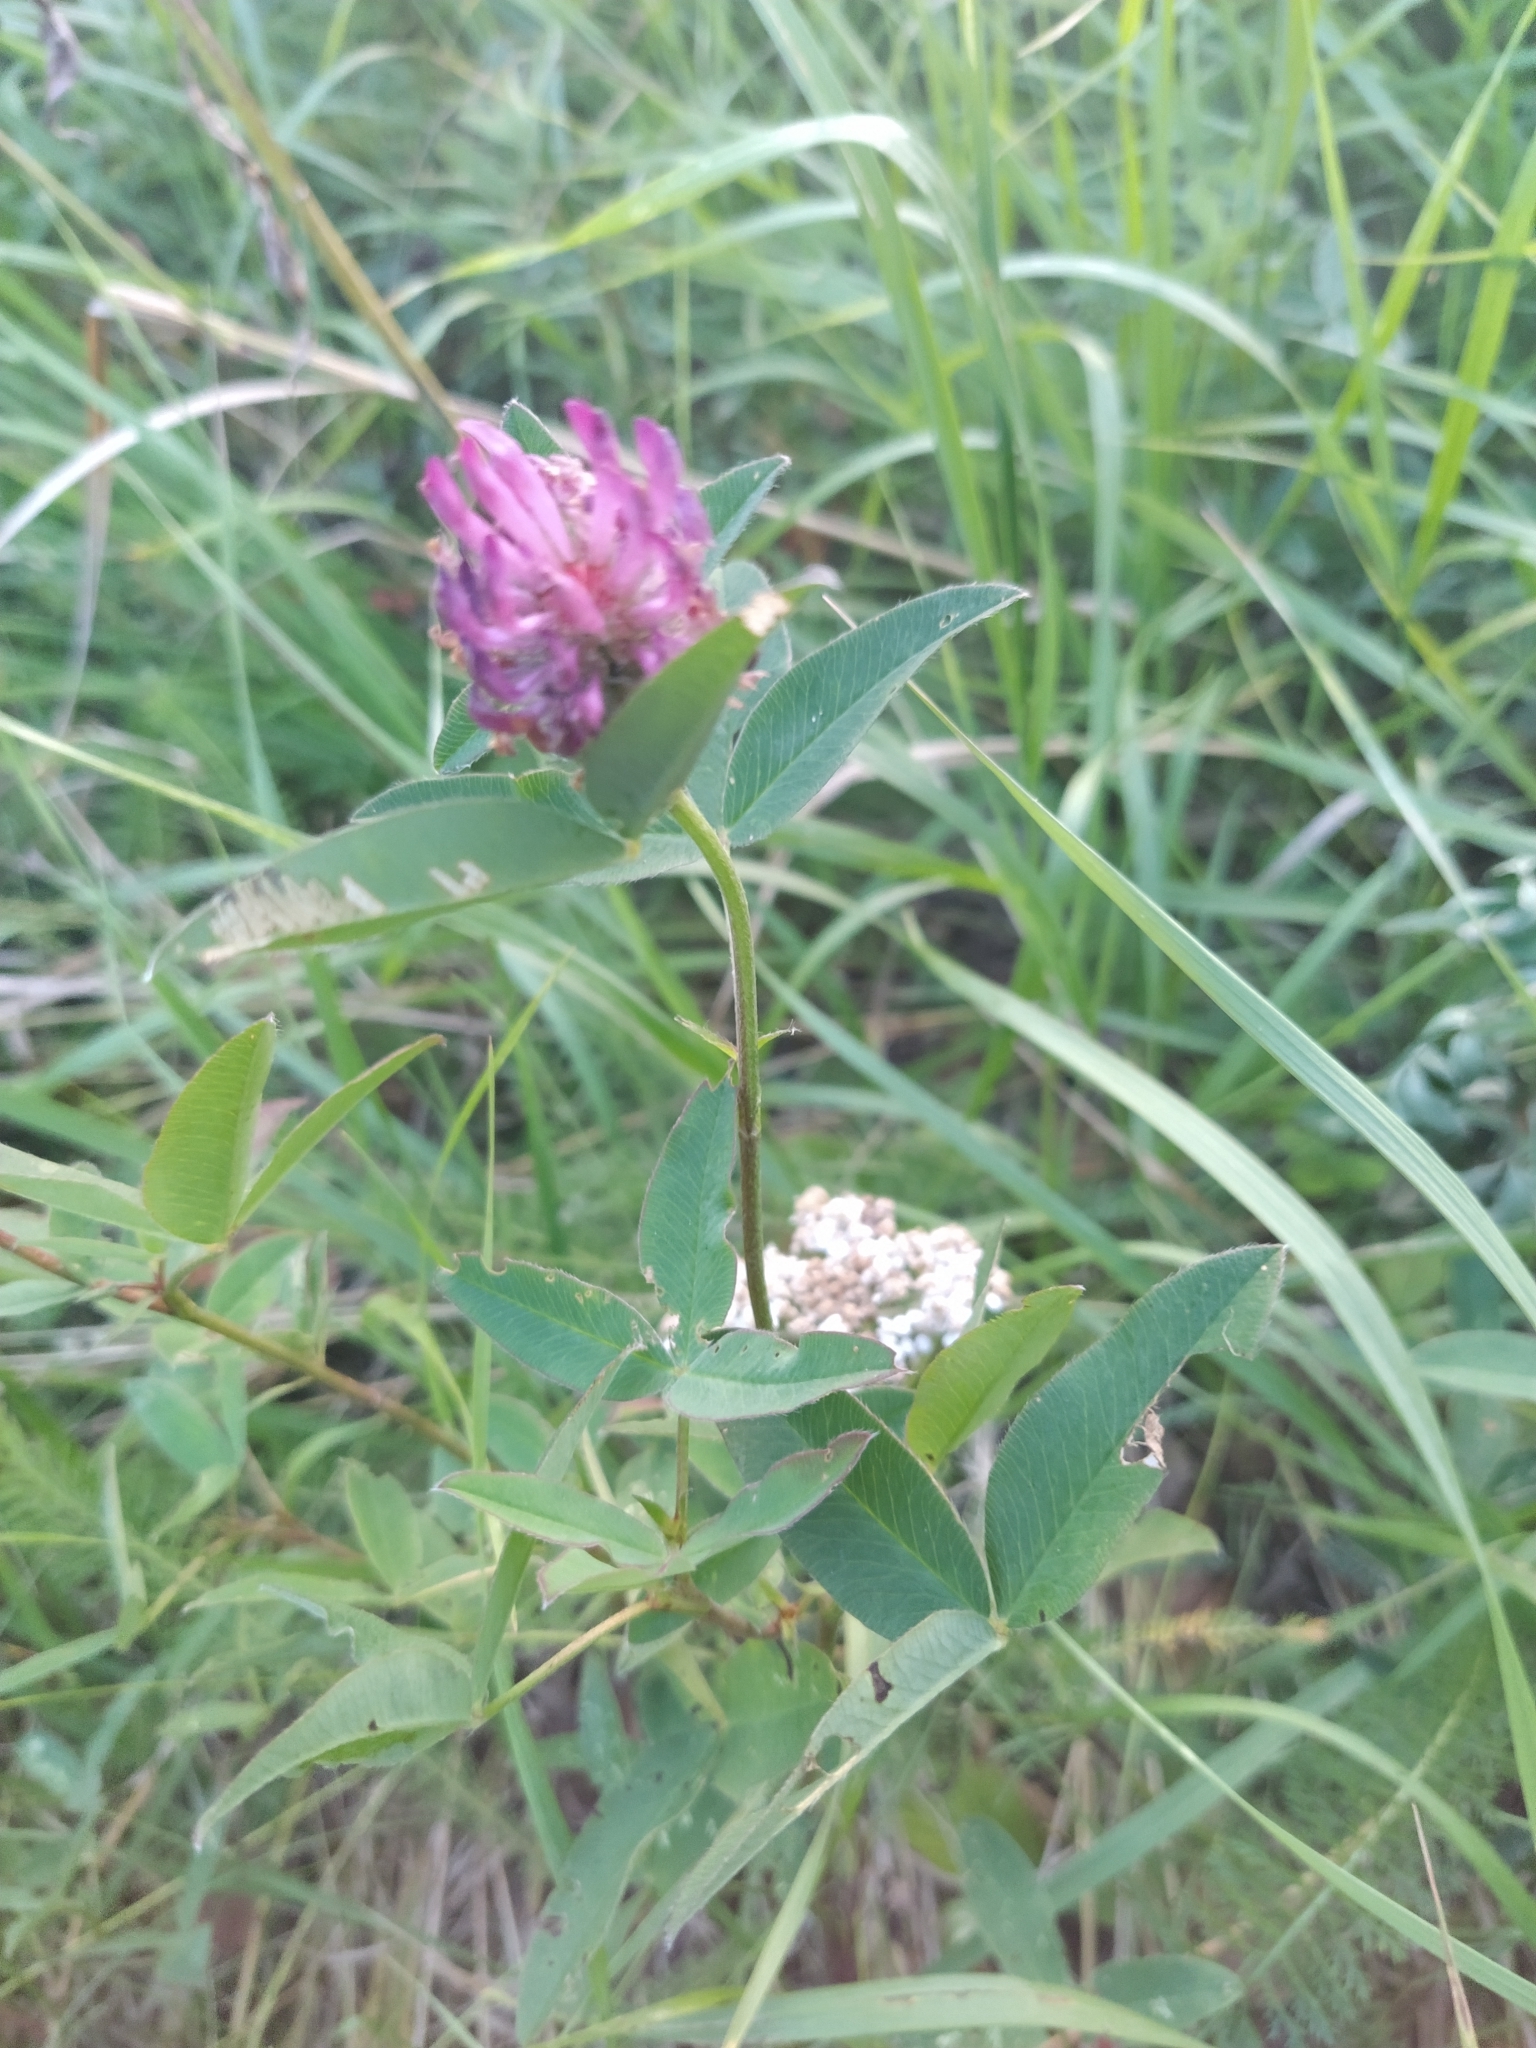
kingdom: Plantae
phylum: Tracheophyta
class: Magnoliopsida
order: Fabales
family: Fabaceae
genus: Trifolium
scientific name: Trifolium medium
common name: Zigzag clover
